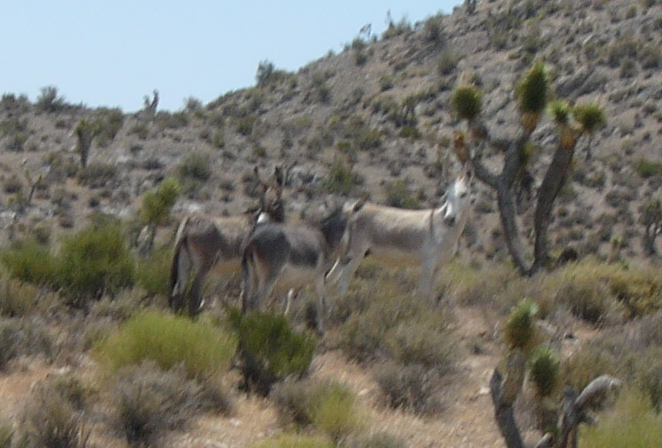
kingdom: Animalia
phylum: Chordata
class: Mammalia
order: Perissodactyla
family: Equidae
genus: Equus
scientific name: Equus asinus
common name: Ass
